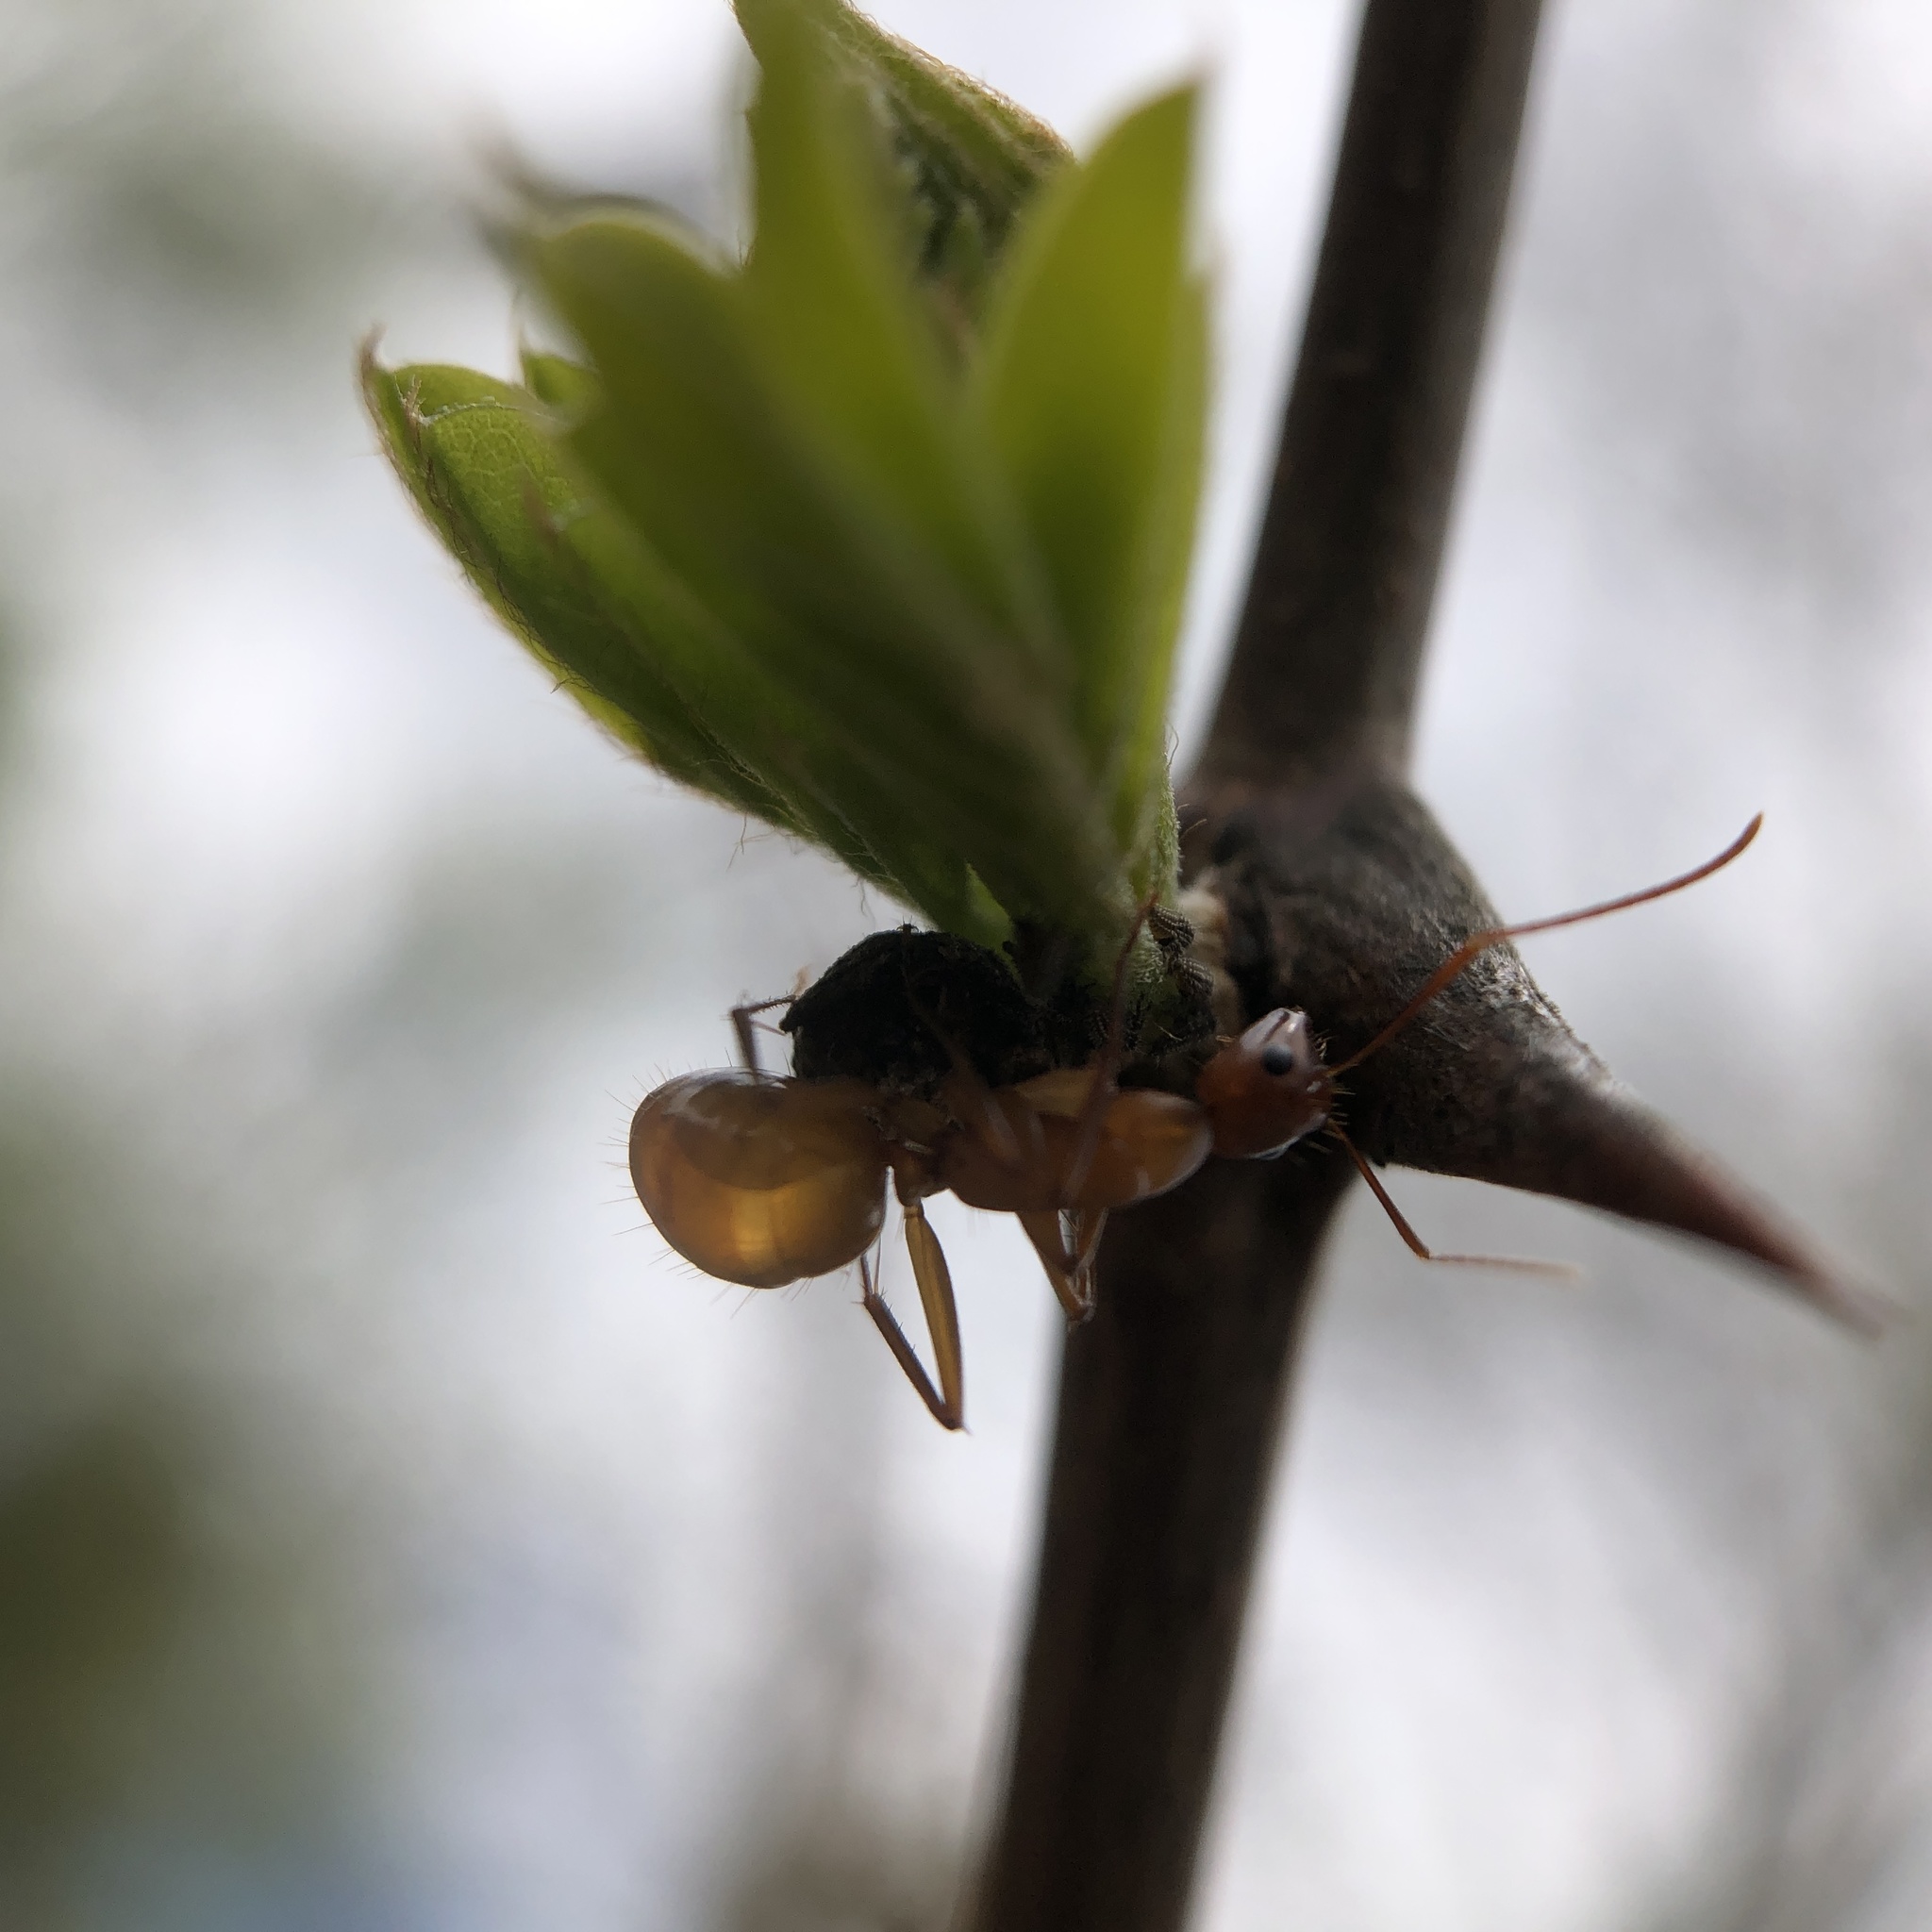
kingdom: Animalia
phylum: Arthropoda
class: Insecta
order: Hymenoptera
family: Formicidae
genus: Camponotus
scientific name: Camponotus castaneus
